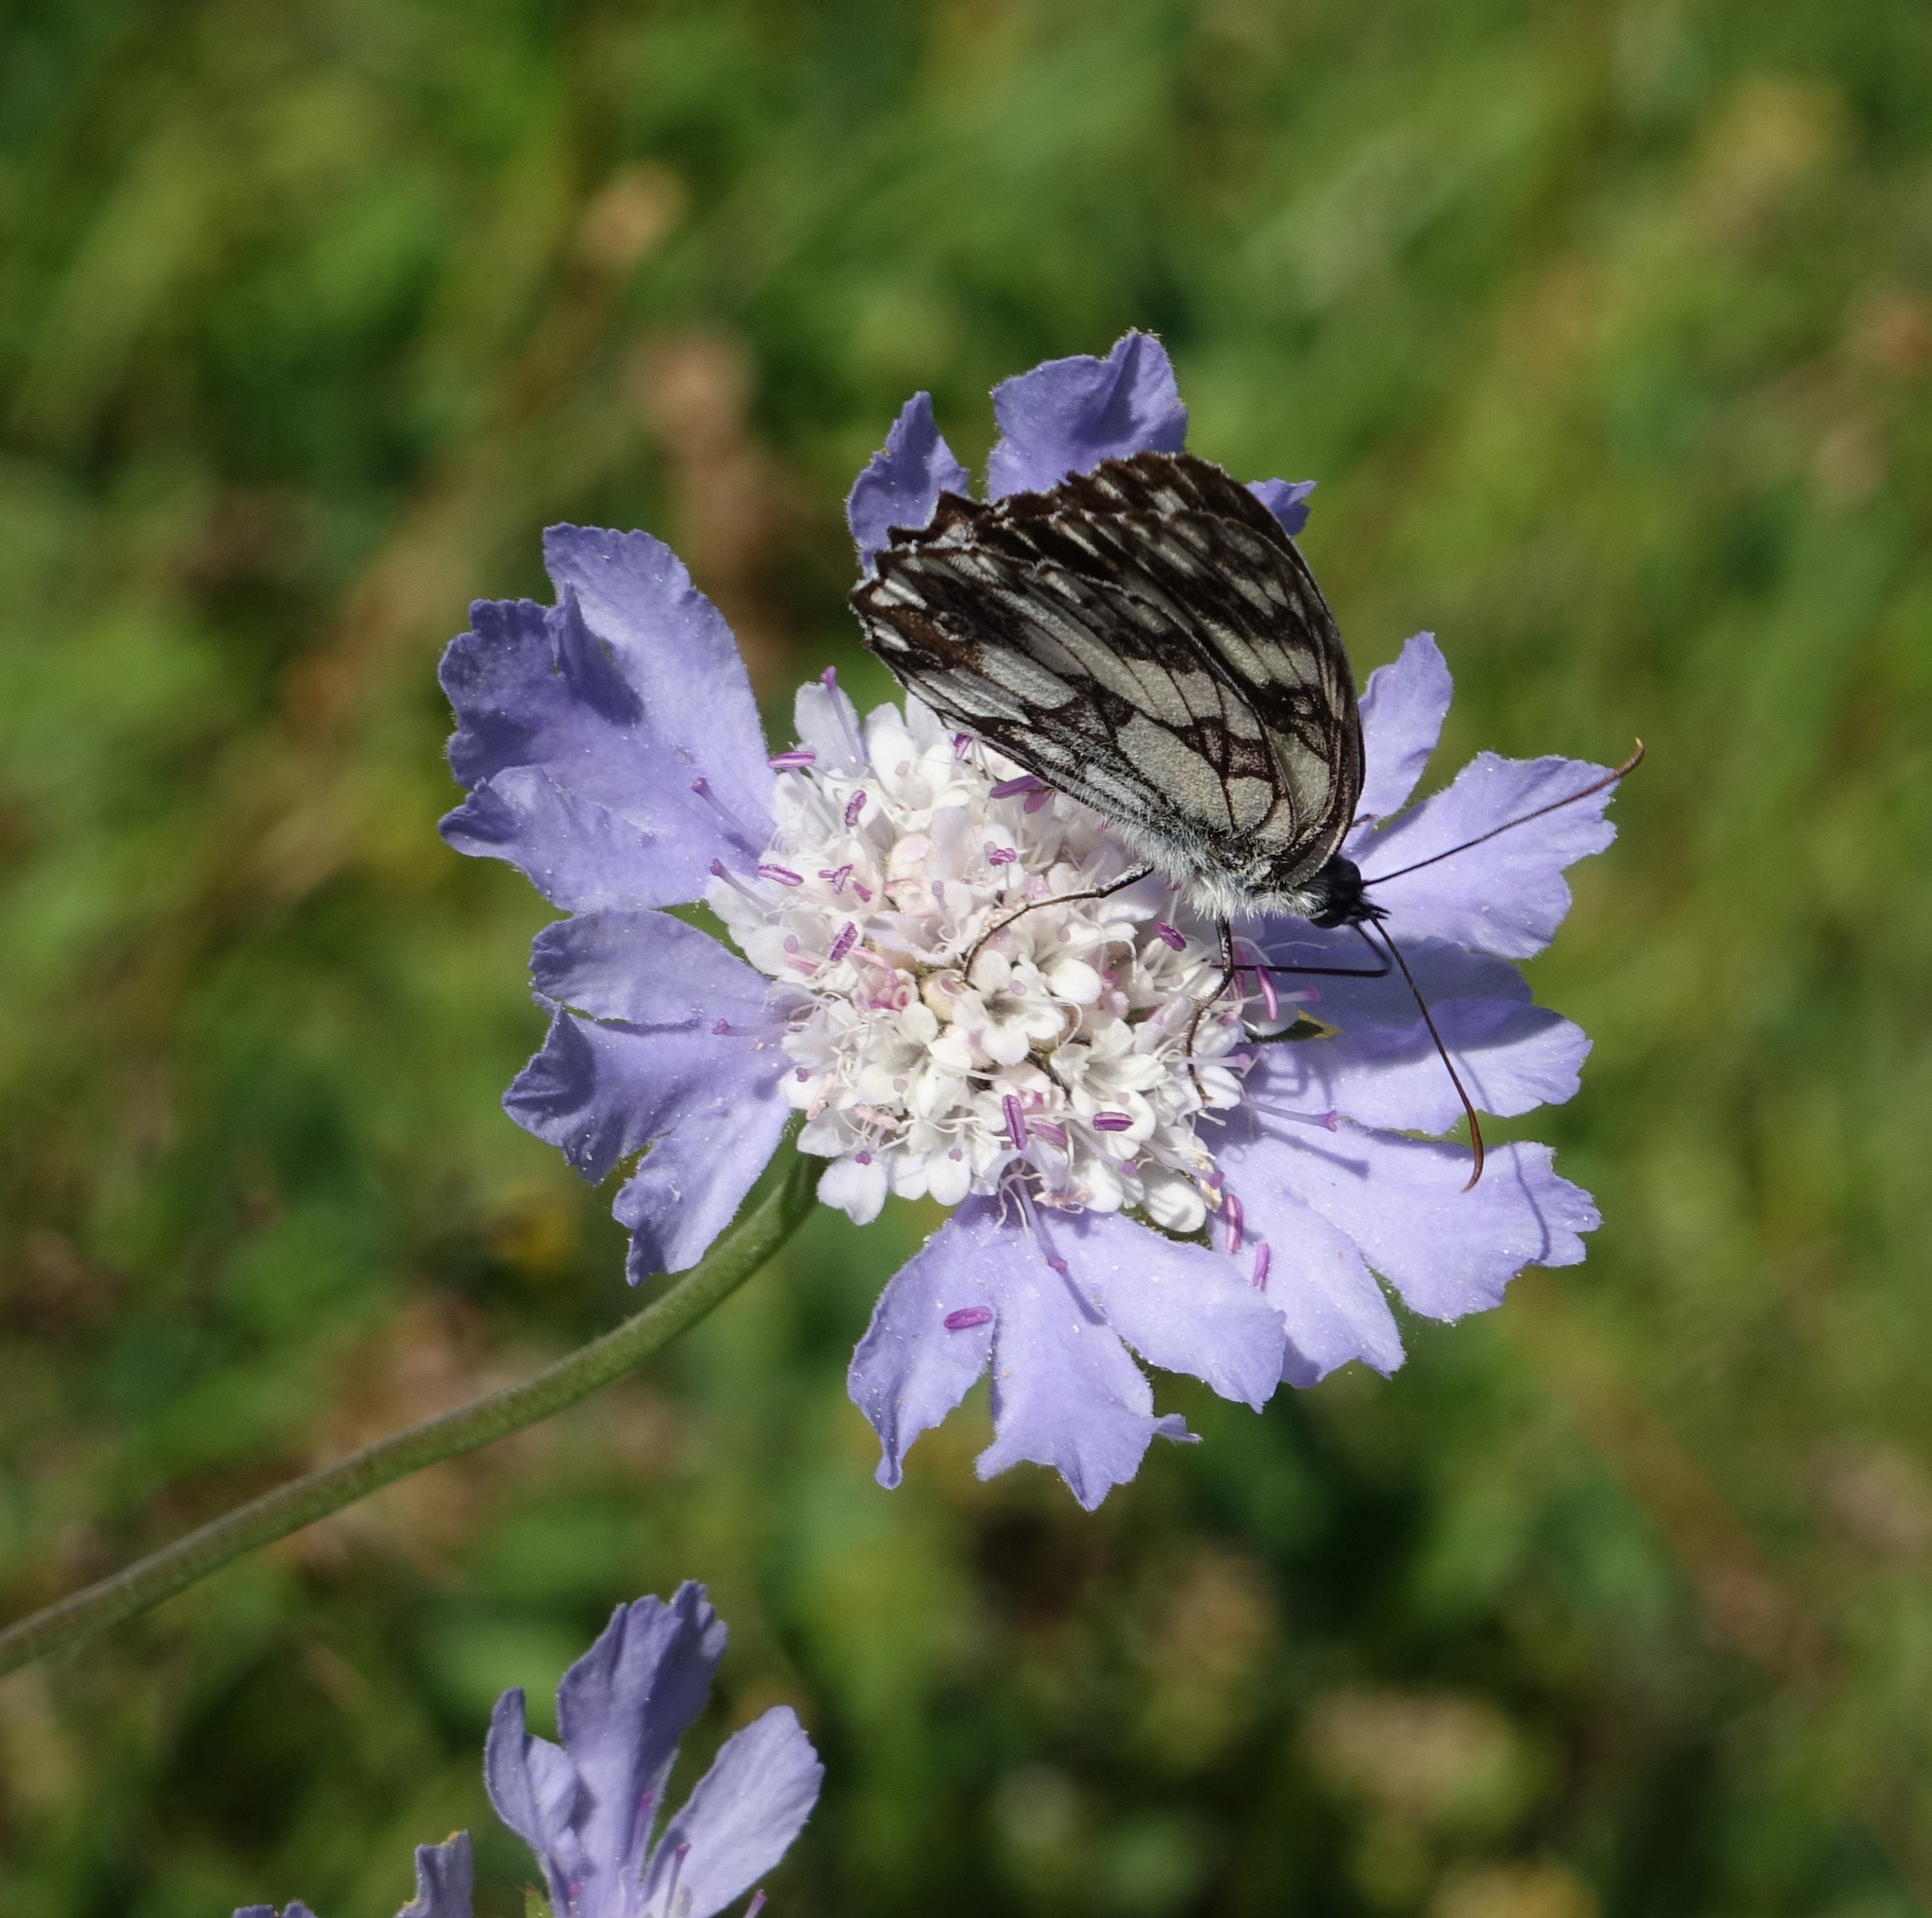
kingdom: Animalia
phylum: Arthropoda
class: Insecta
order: Lepidoptera
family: Nymphalidae
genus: Melanargia
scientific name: Melanargia galathea
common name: Marbled white
